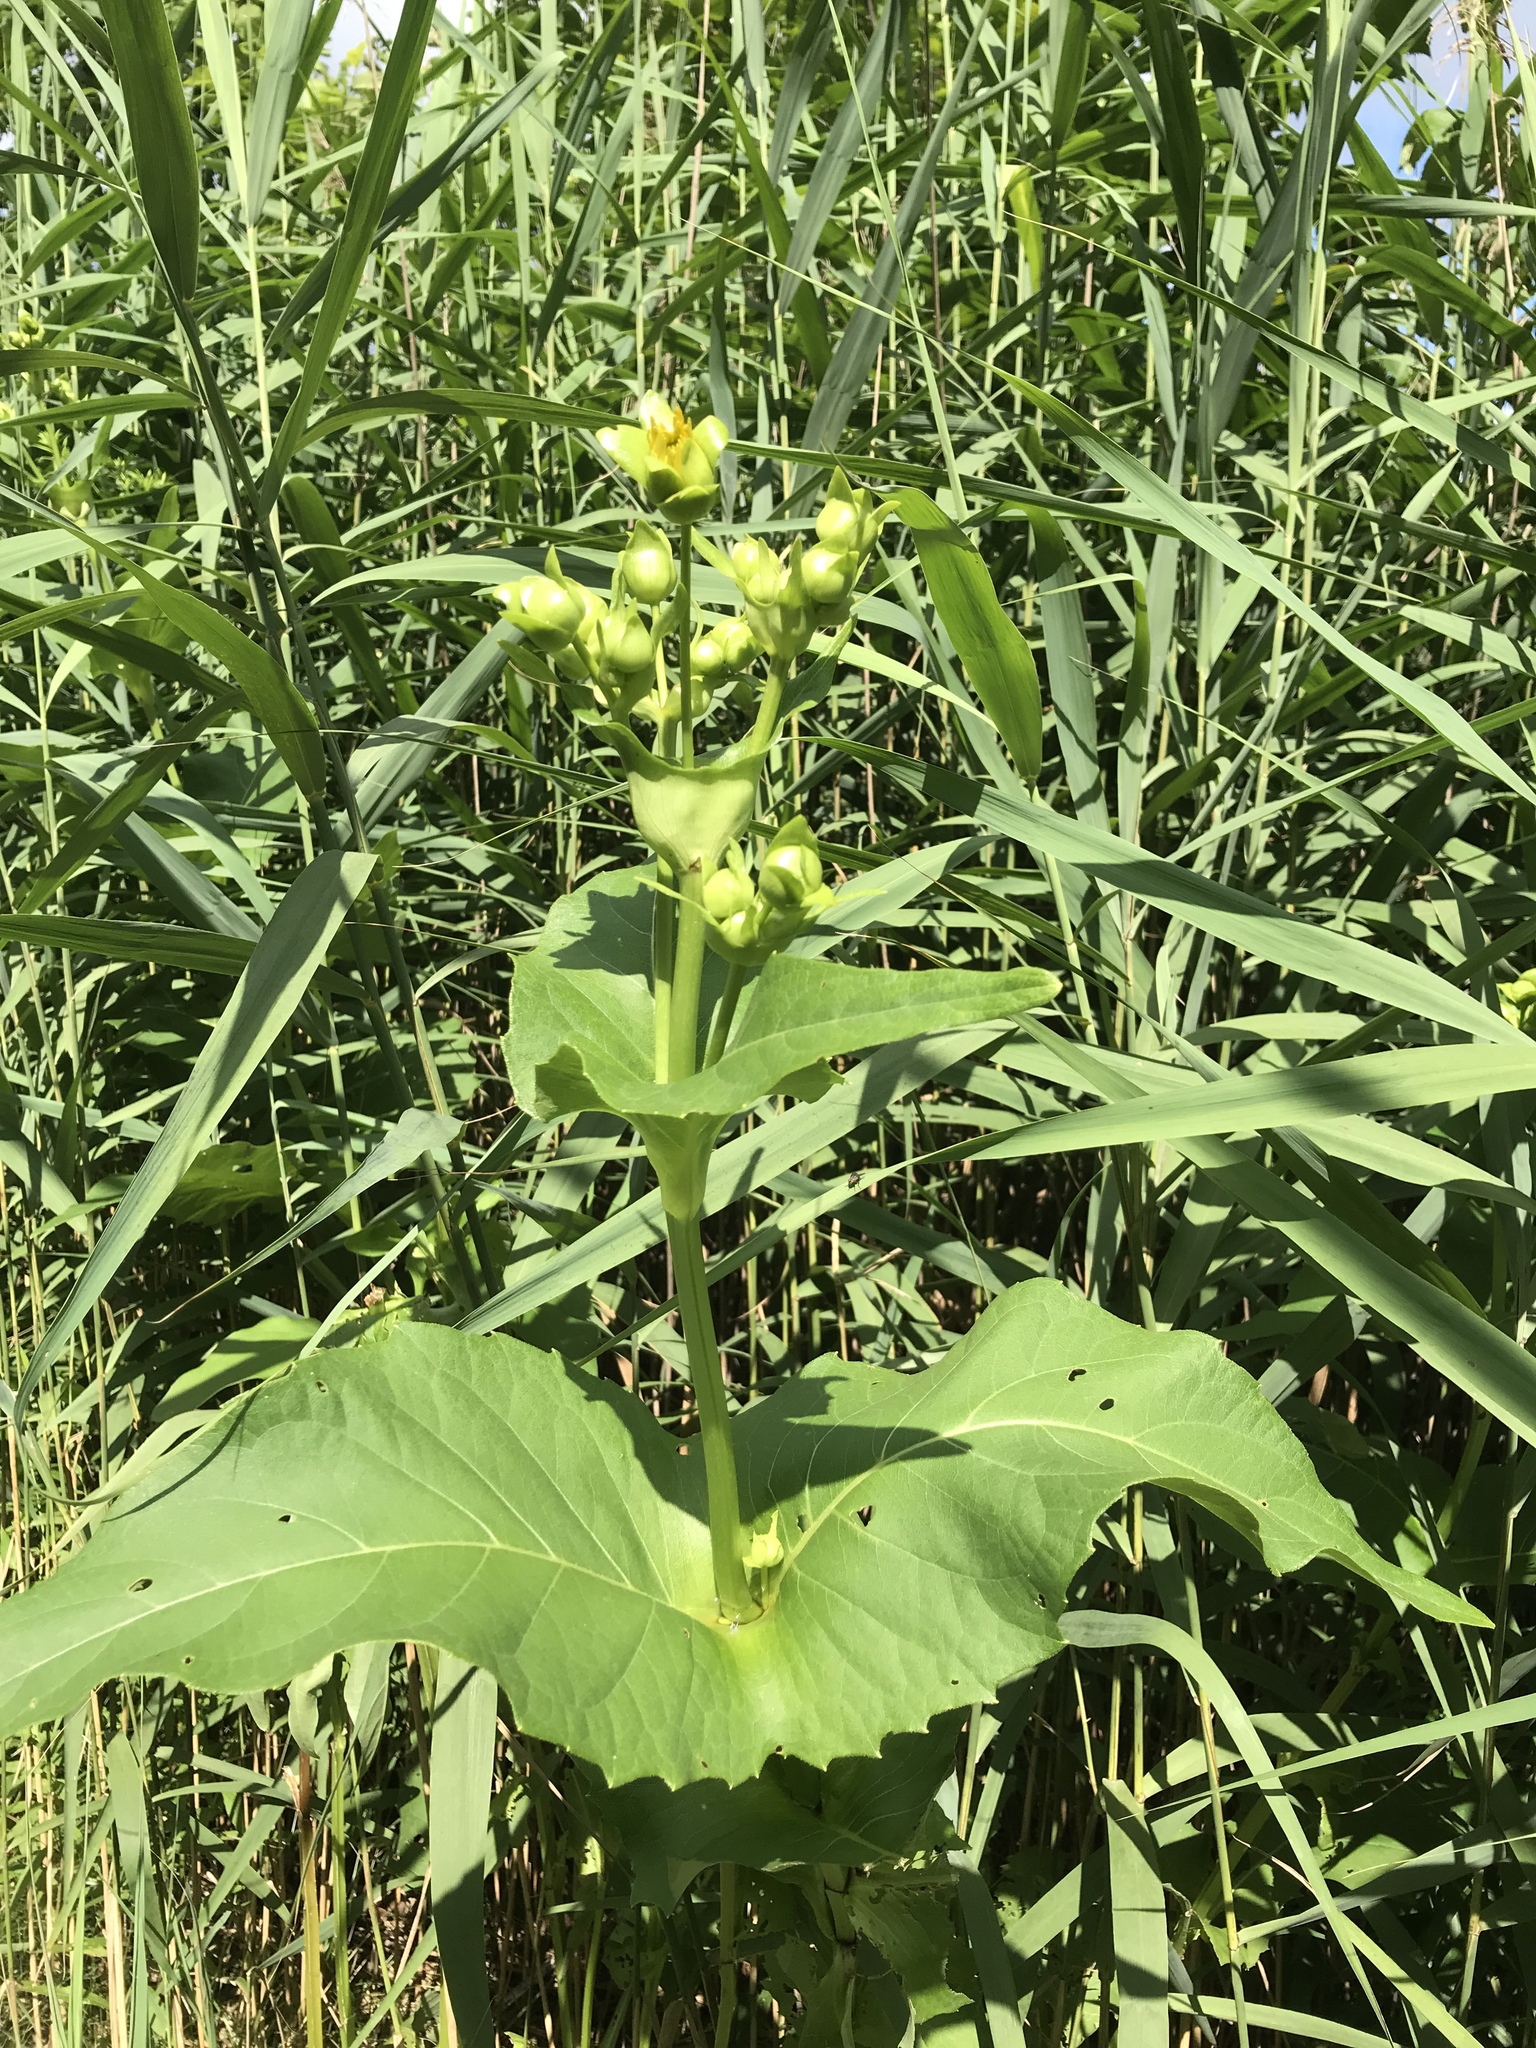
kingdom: Plantae
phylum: Tracheophyta
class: Magnoliopsida
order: Asterales
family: Asteraceae
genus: Silphium
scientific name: Silphium perfoliatum
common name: Cup-plant
